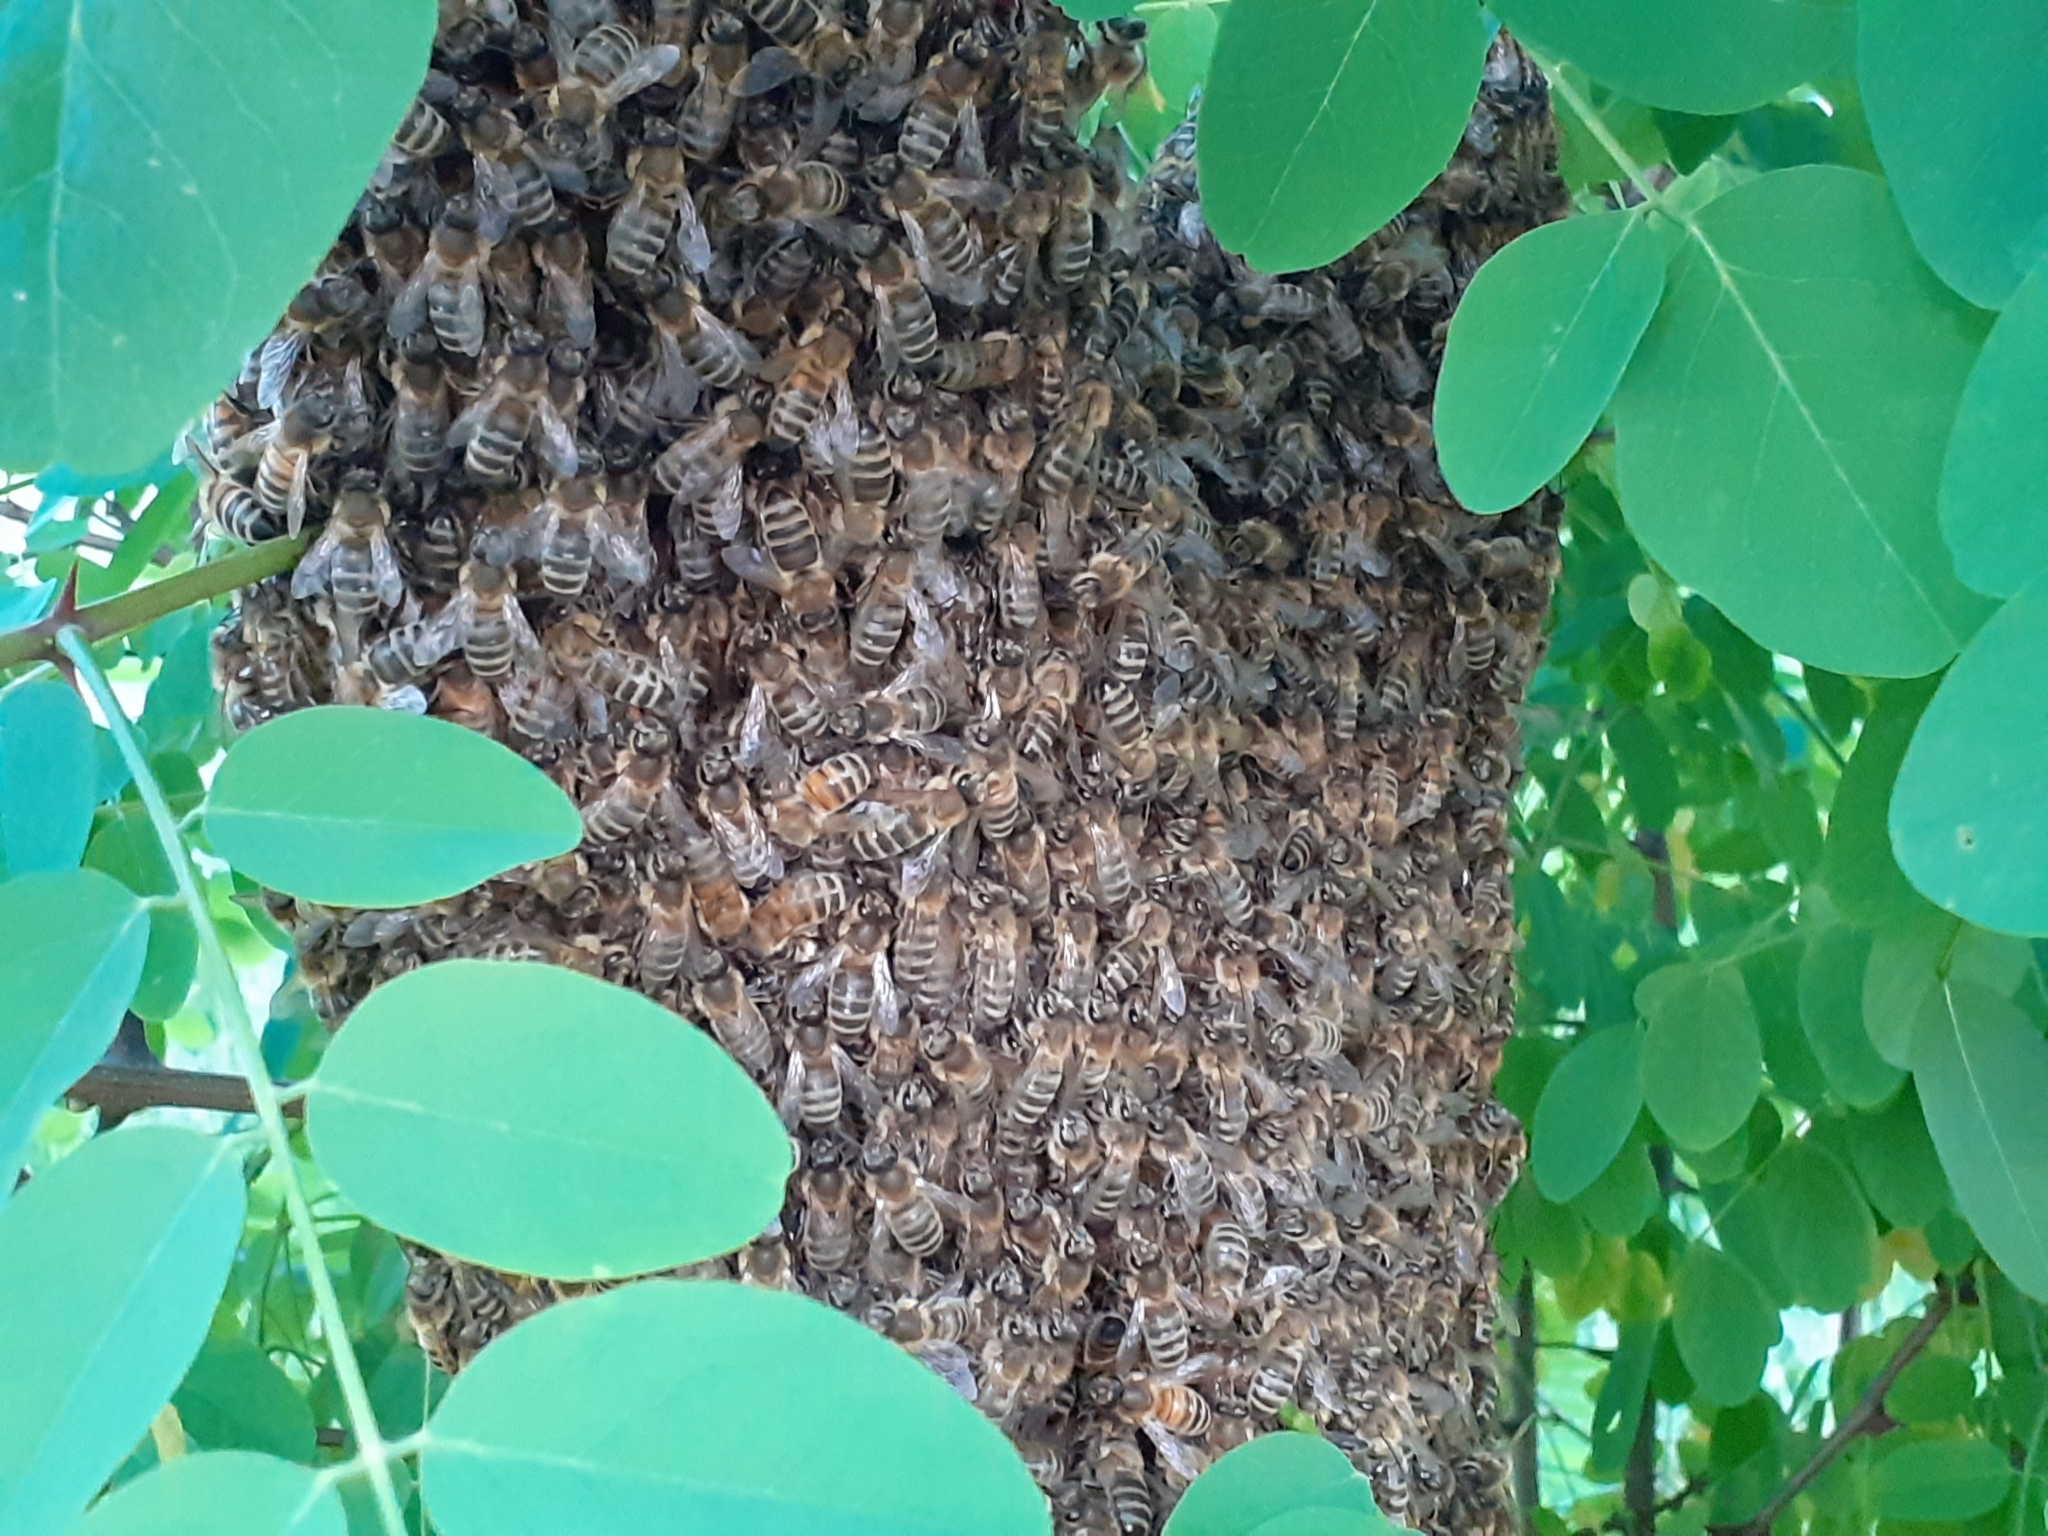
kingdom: Animalia
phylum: Arthropoda
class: Insecta
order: Hymenoptera
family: Apidae
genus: Apis
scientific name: Apis mellifera
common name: Honey bee
